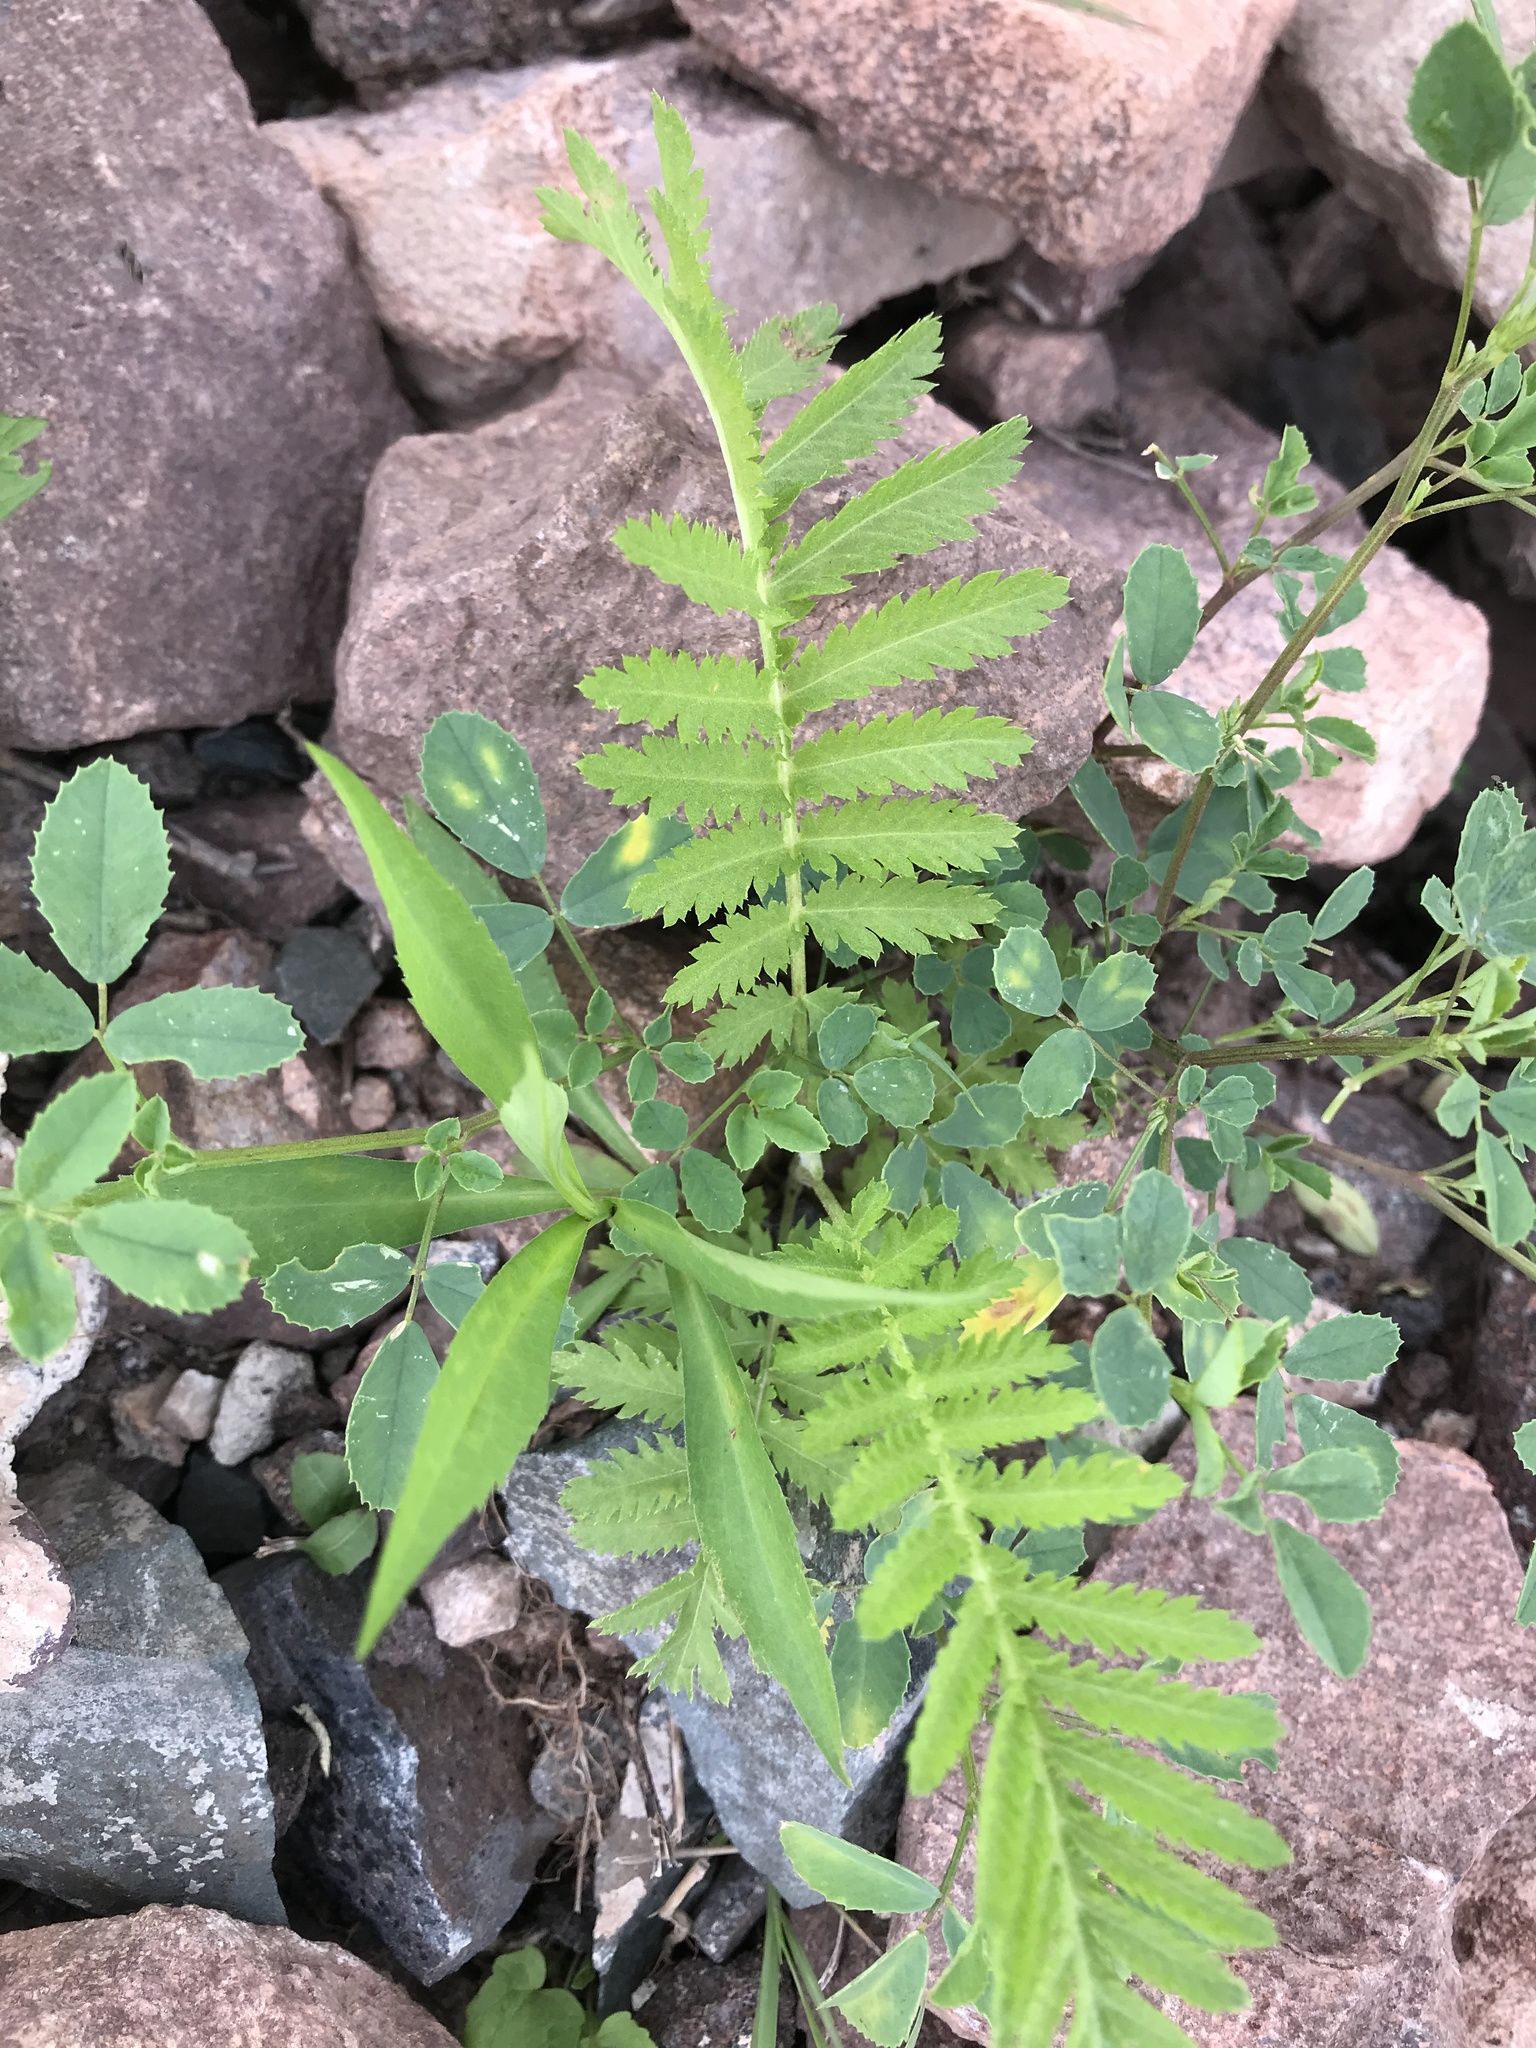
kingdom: Plantae
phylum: Tracheophyta
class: Magnoliopsida
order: Asterales
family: Asteraceae
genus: Tanacetum
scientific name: Tanacetum vulgare
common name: Common tansy
